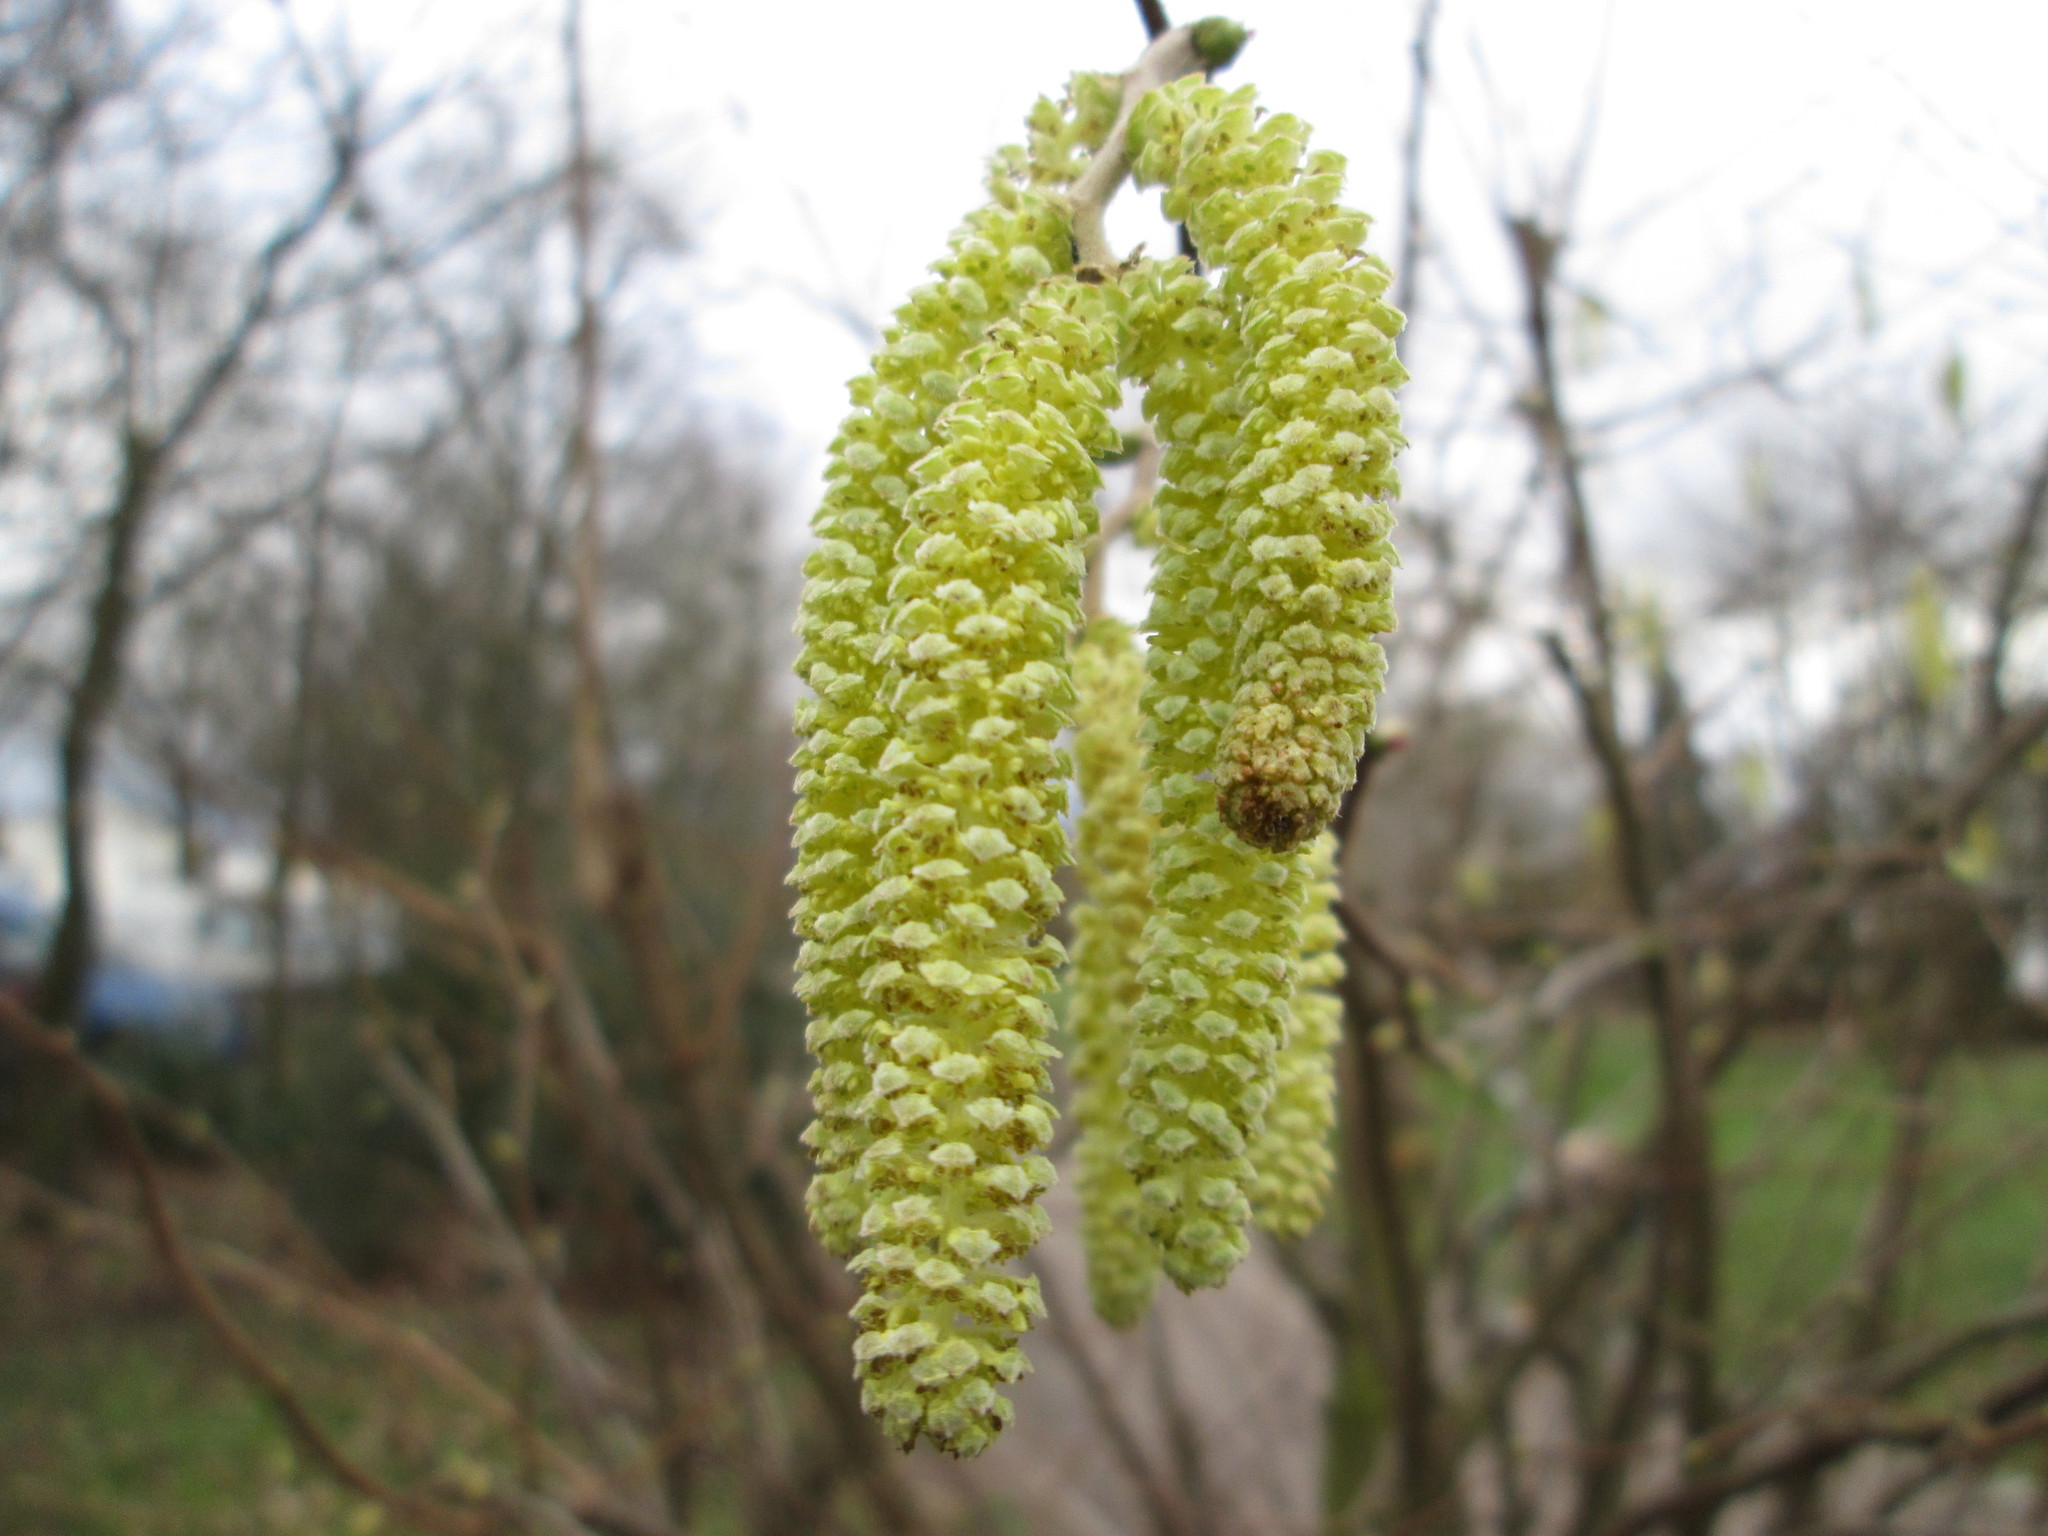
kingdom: Plantae
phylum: Tracheophyta
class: Magnoliopsida
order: Fagales
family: Betulaceae
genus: Corylus
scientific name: Corylus avellana
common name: European hazel
